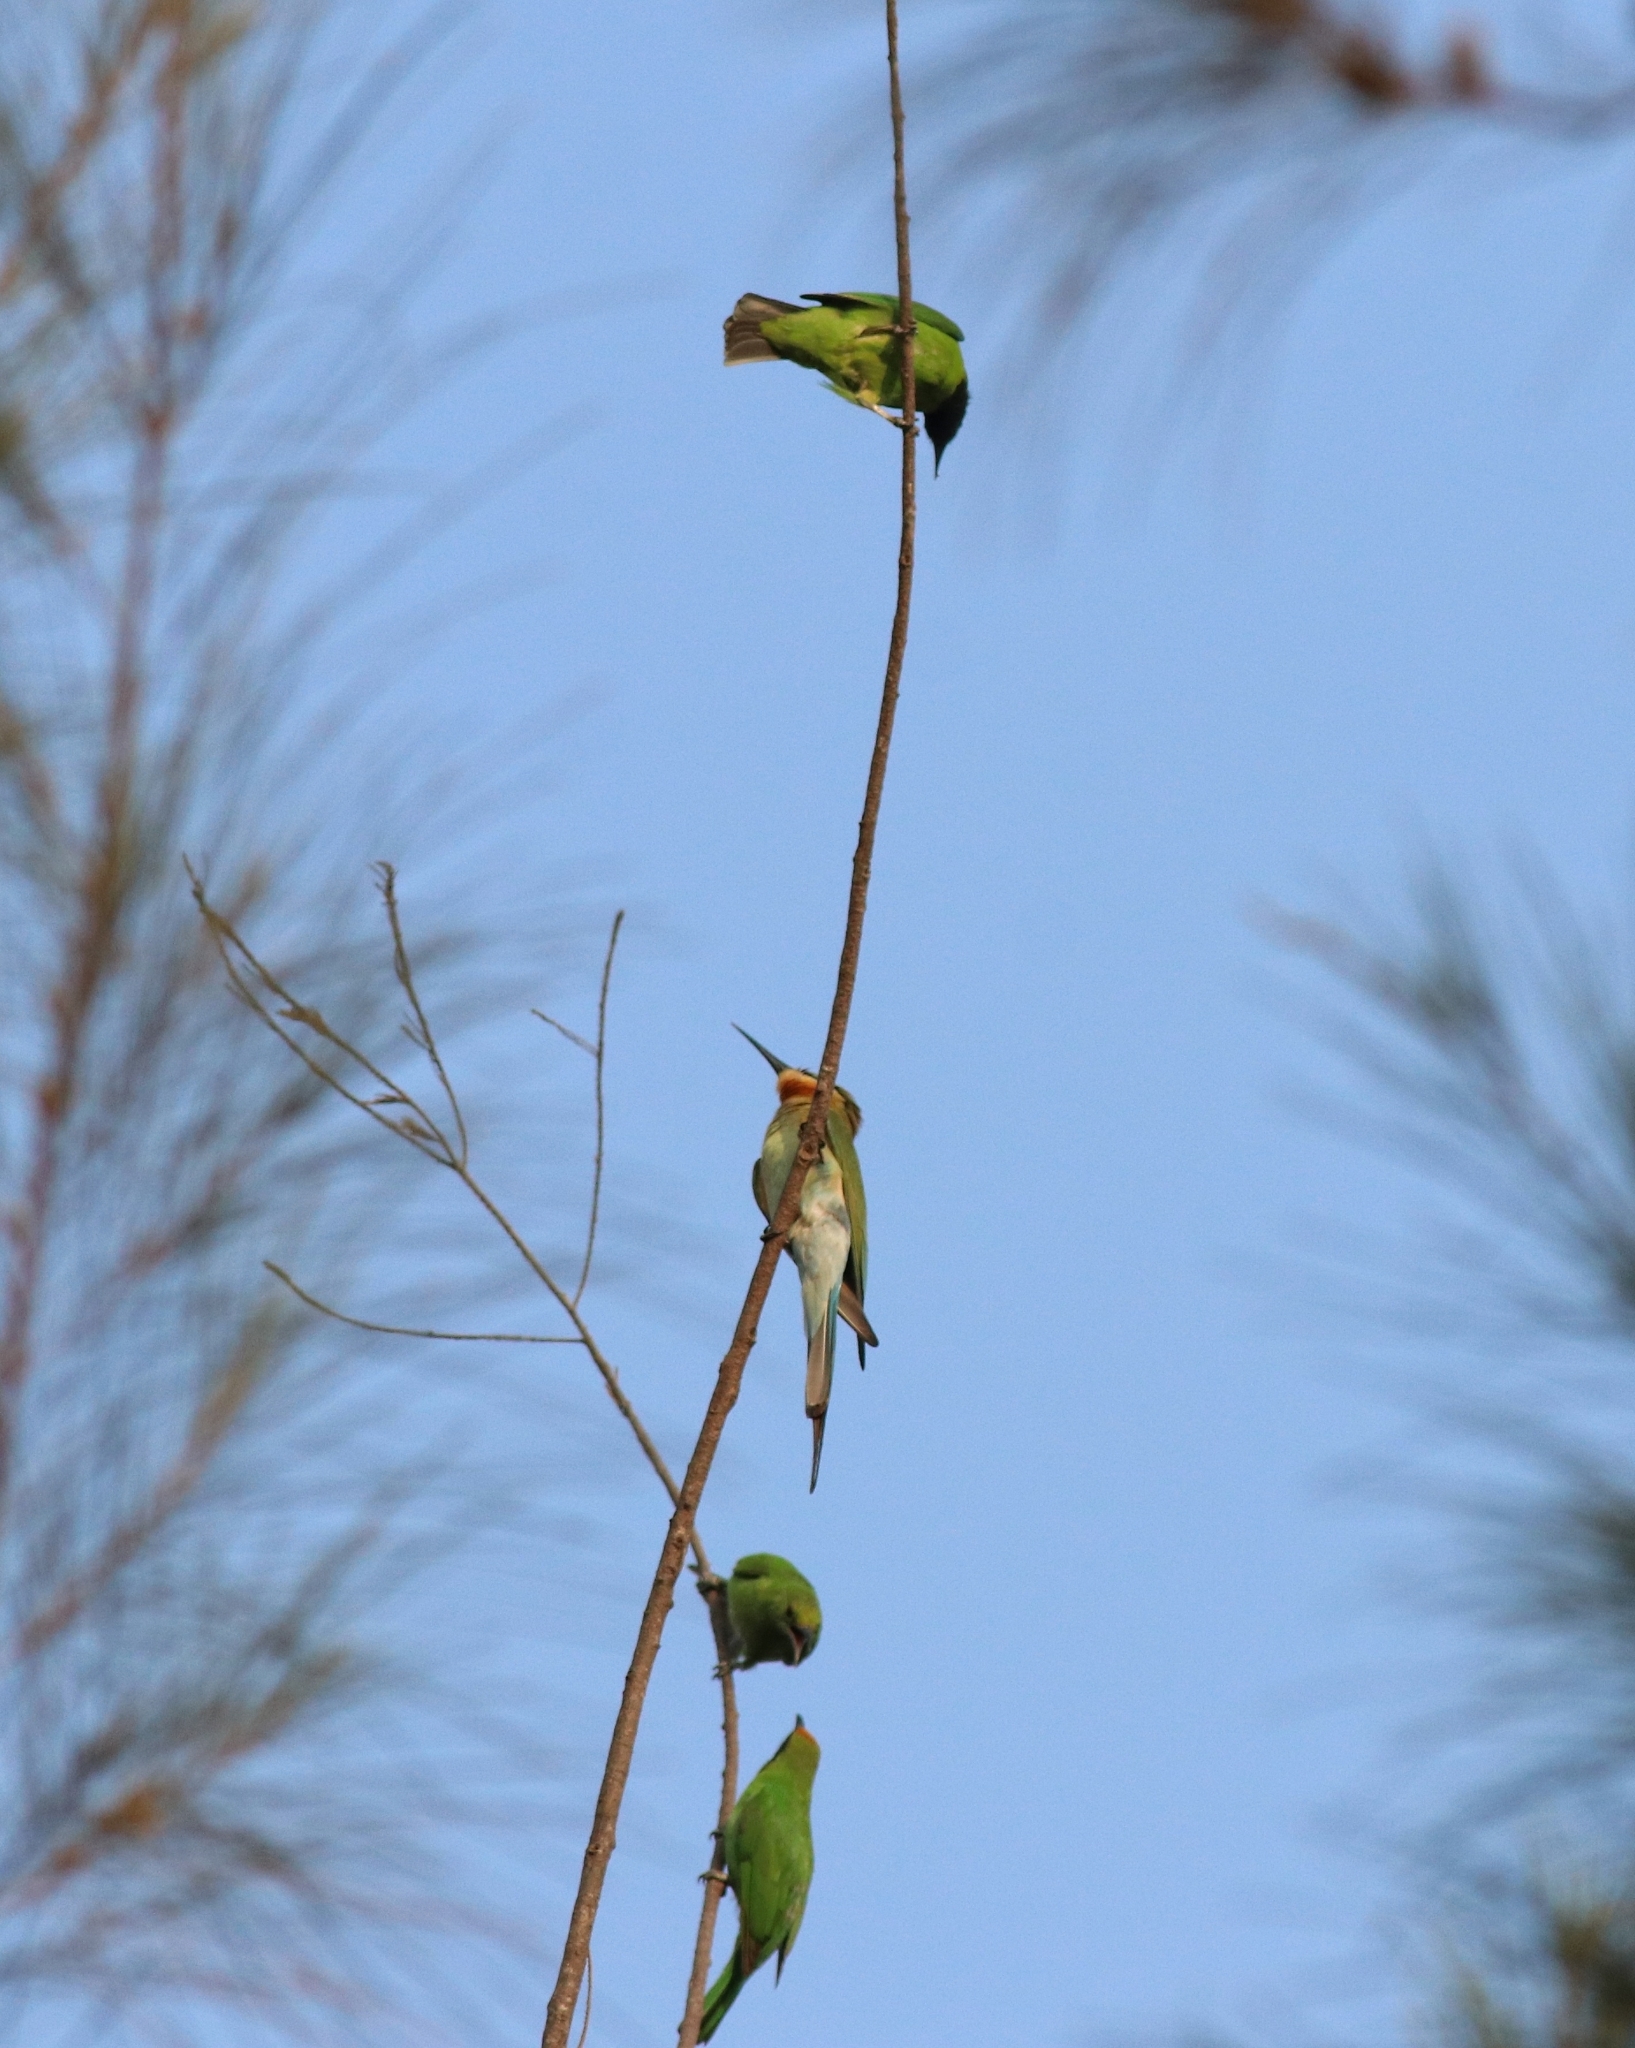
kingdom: Animalia
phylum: Chordata
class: Aves
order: Passeriformes
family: Chloropseidae
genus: Chloropsis
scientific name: Chloropsis aurifrons
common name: Golden-fronted leafbird
